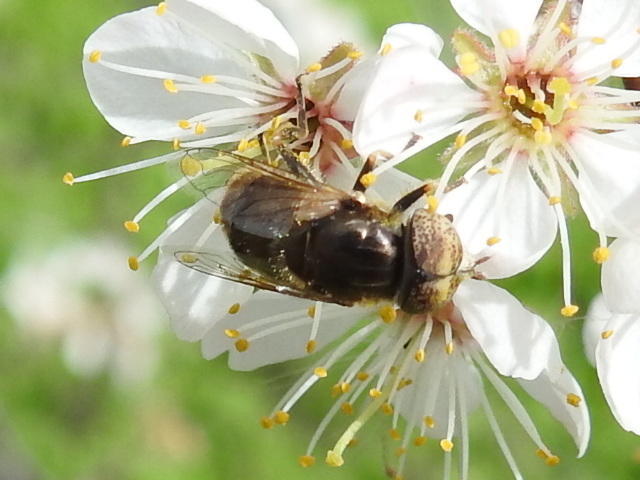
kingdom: Animalia
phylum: Arthropoda
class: Insecta
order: Diptera
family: Syrphidae
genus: Eristalinus
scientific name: Eristalinus aeneus
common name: Syrphid fly
